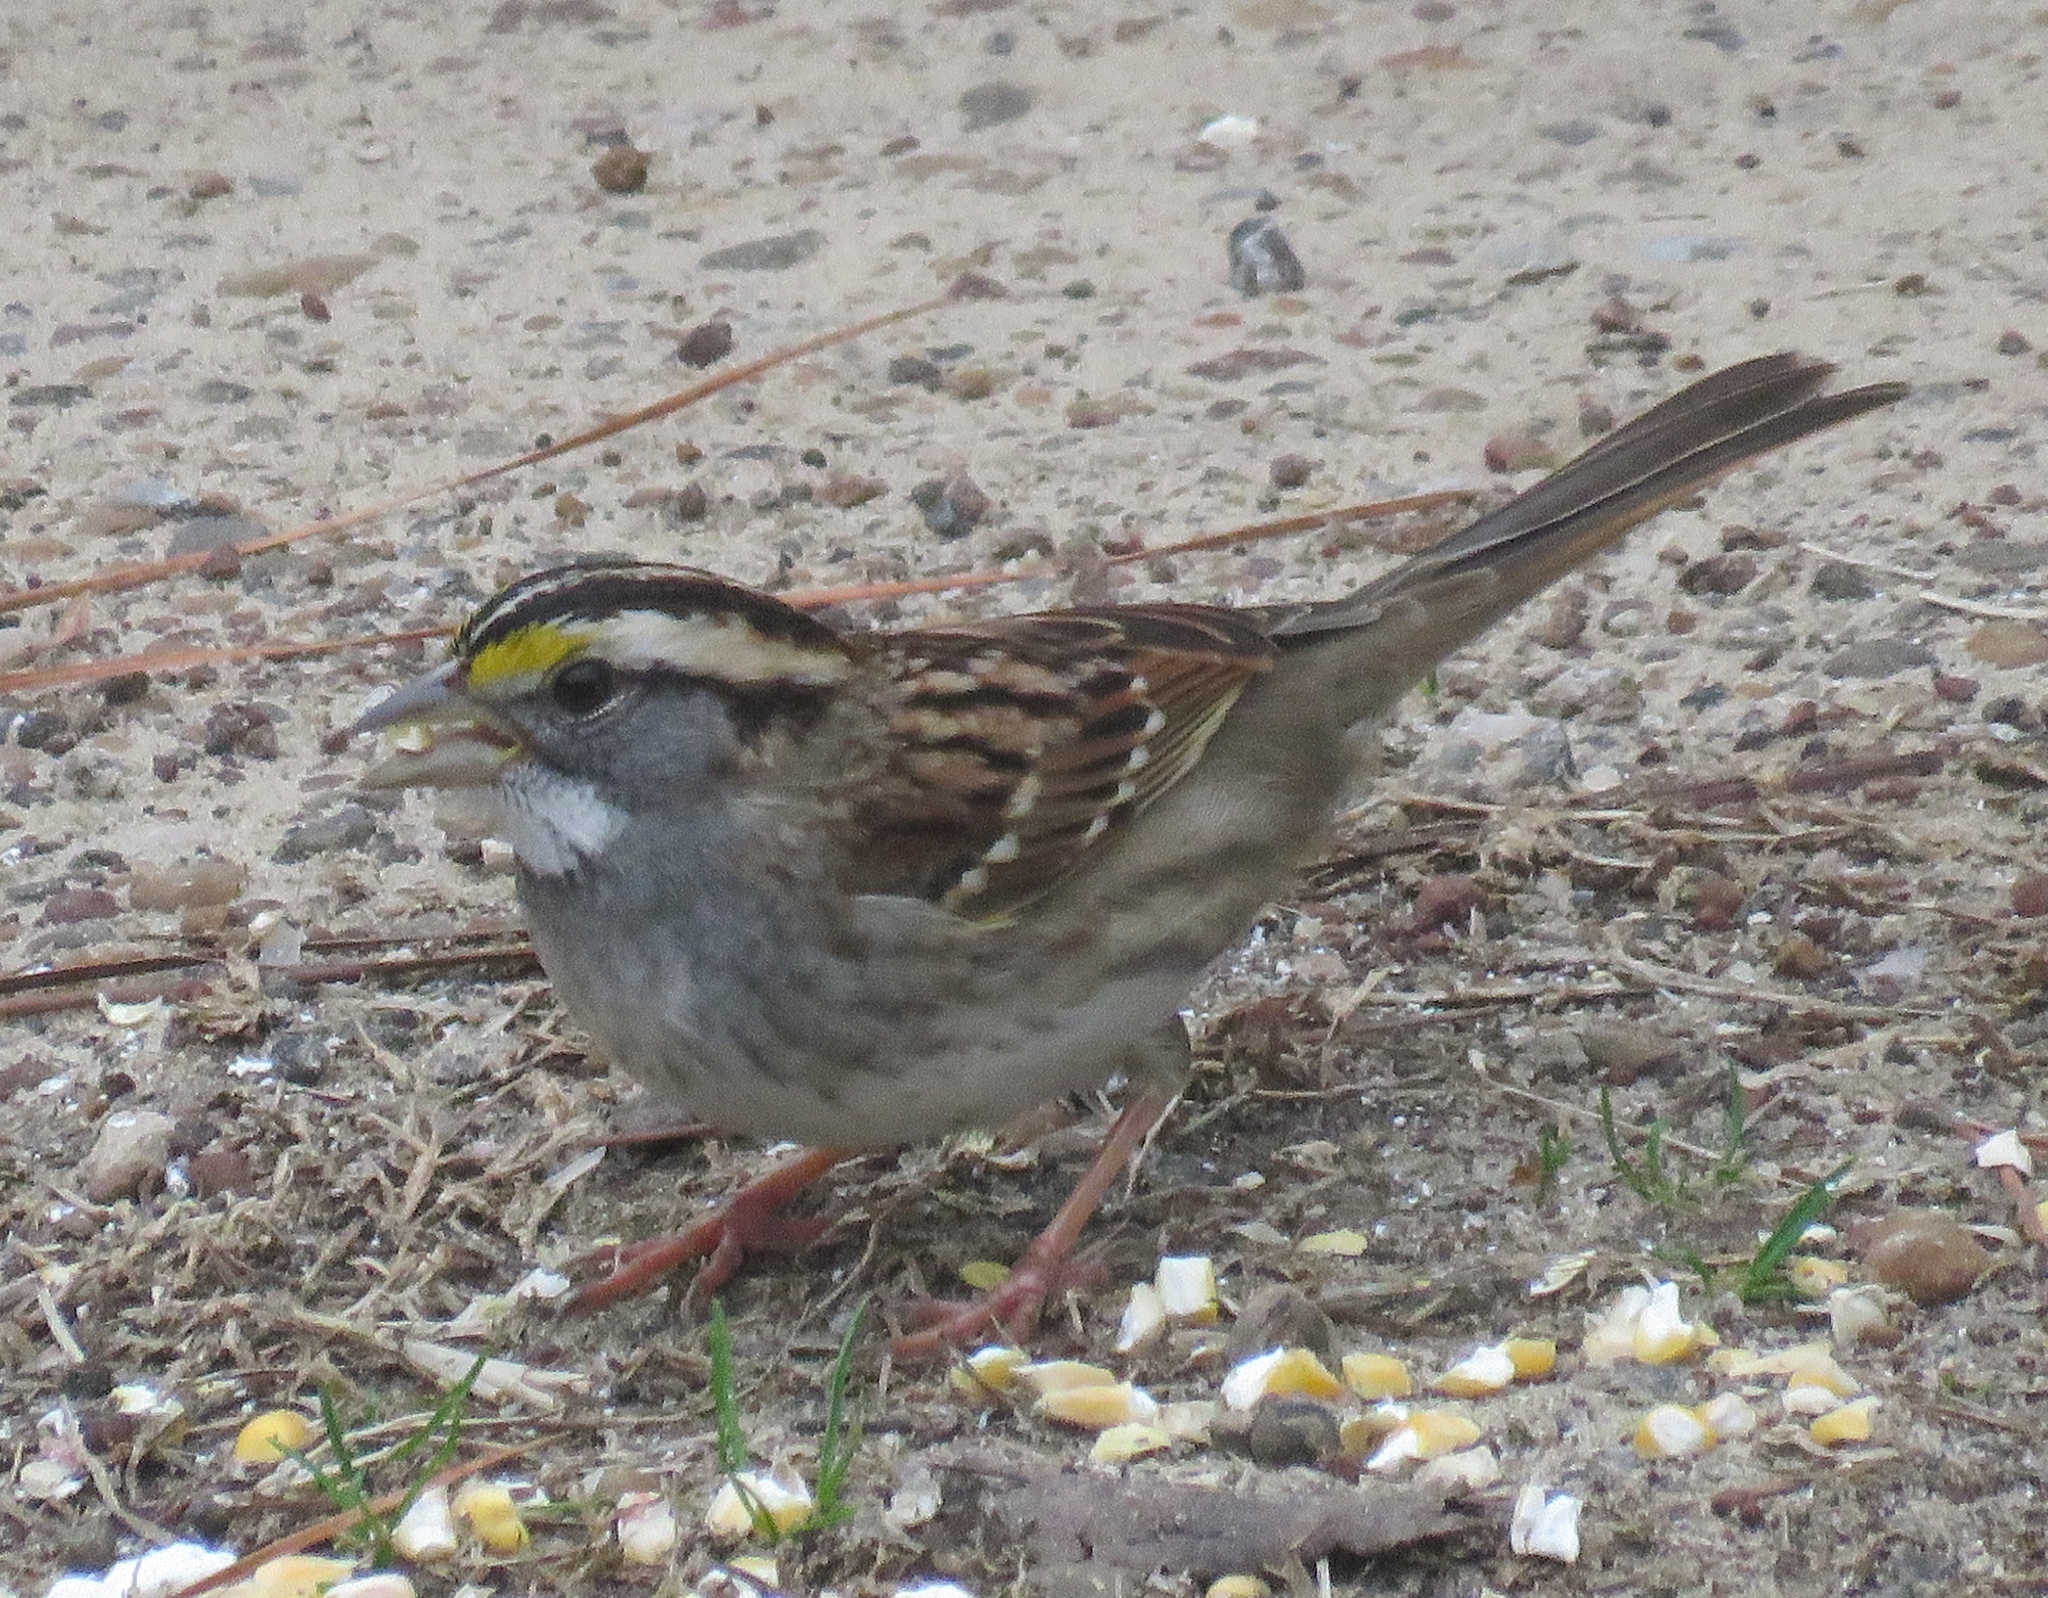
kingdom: Animalia
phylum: Chordata
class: Aves
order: Passeriformes
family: Passerellidae
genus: Zonotrichia
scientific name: Zonotrichia albicollis
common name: White-throated sparrow
